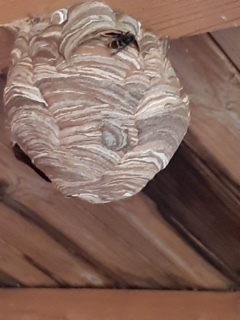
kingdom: Animalia
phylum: Arthropoda
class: Insecta
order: Hymenoptera
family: Vespidae
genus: Vespa
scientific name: Vespa velutina
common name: Asian hornet
